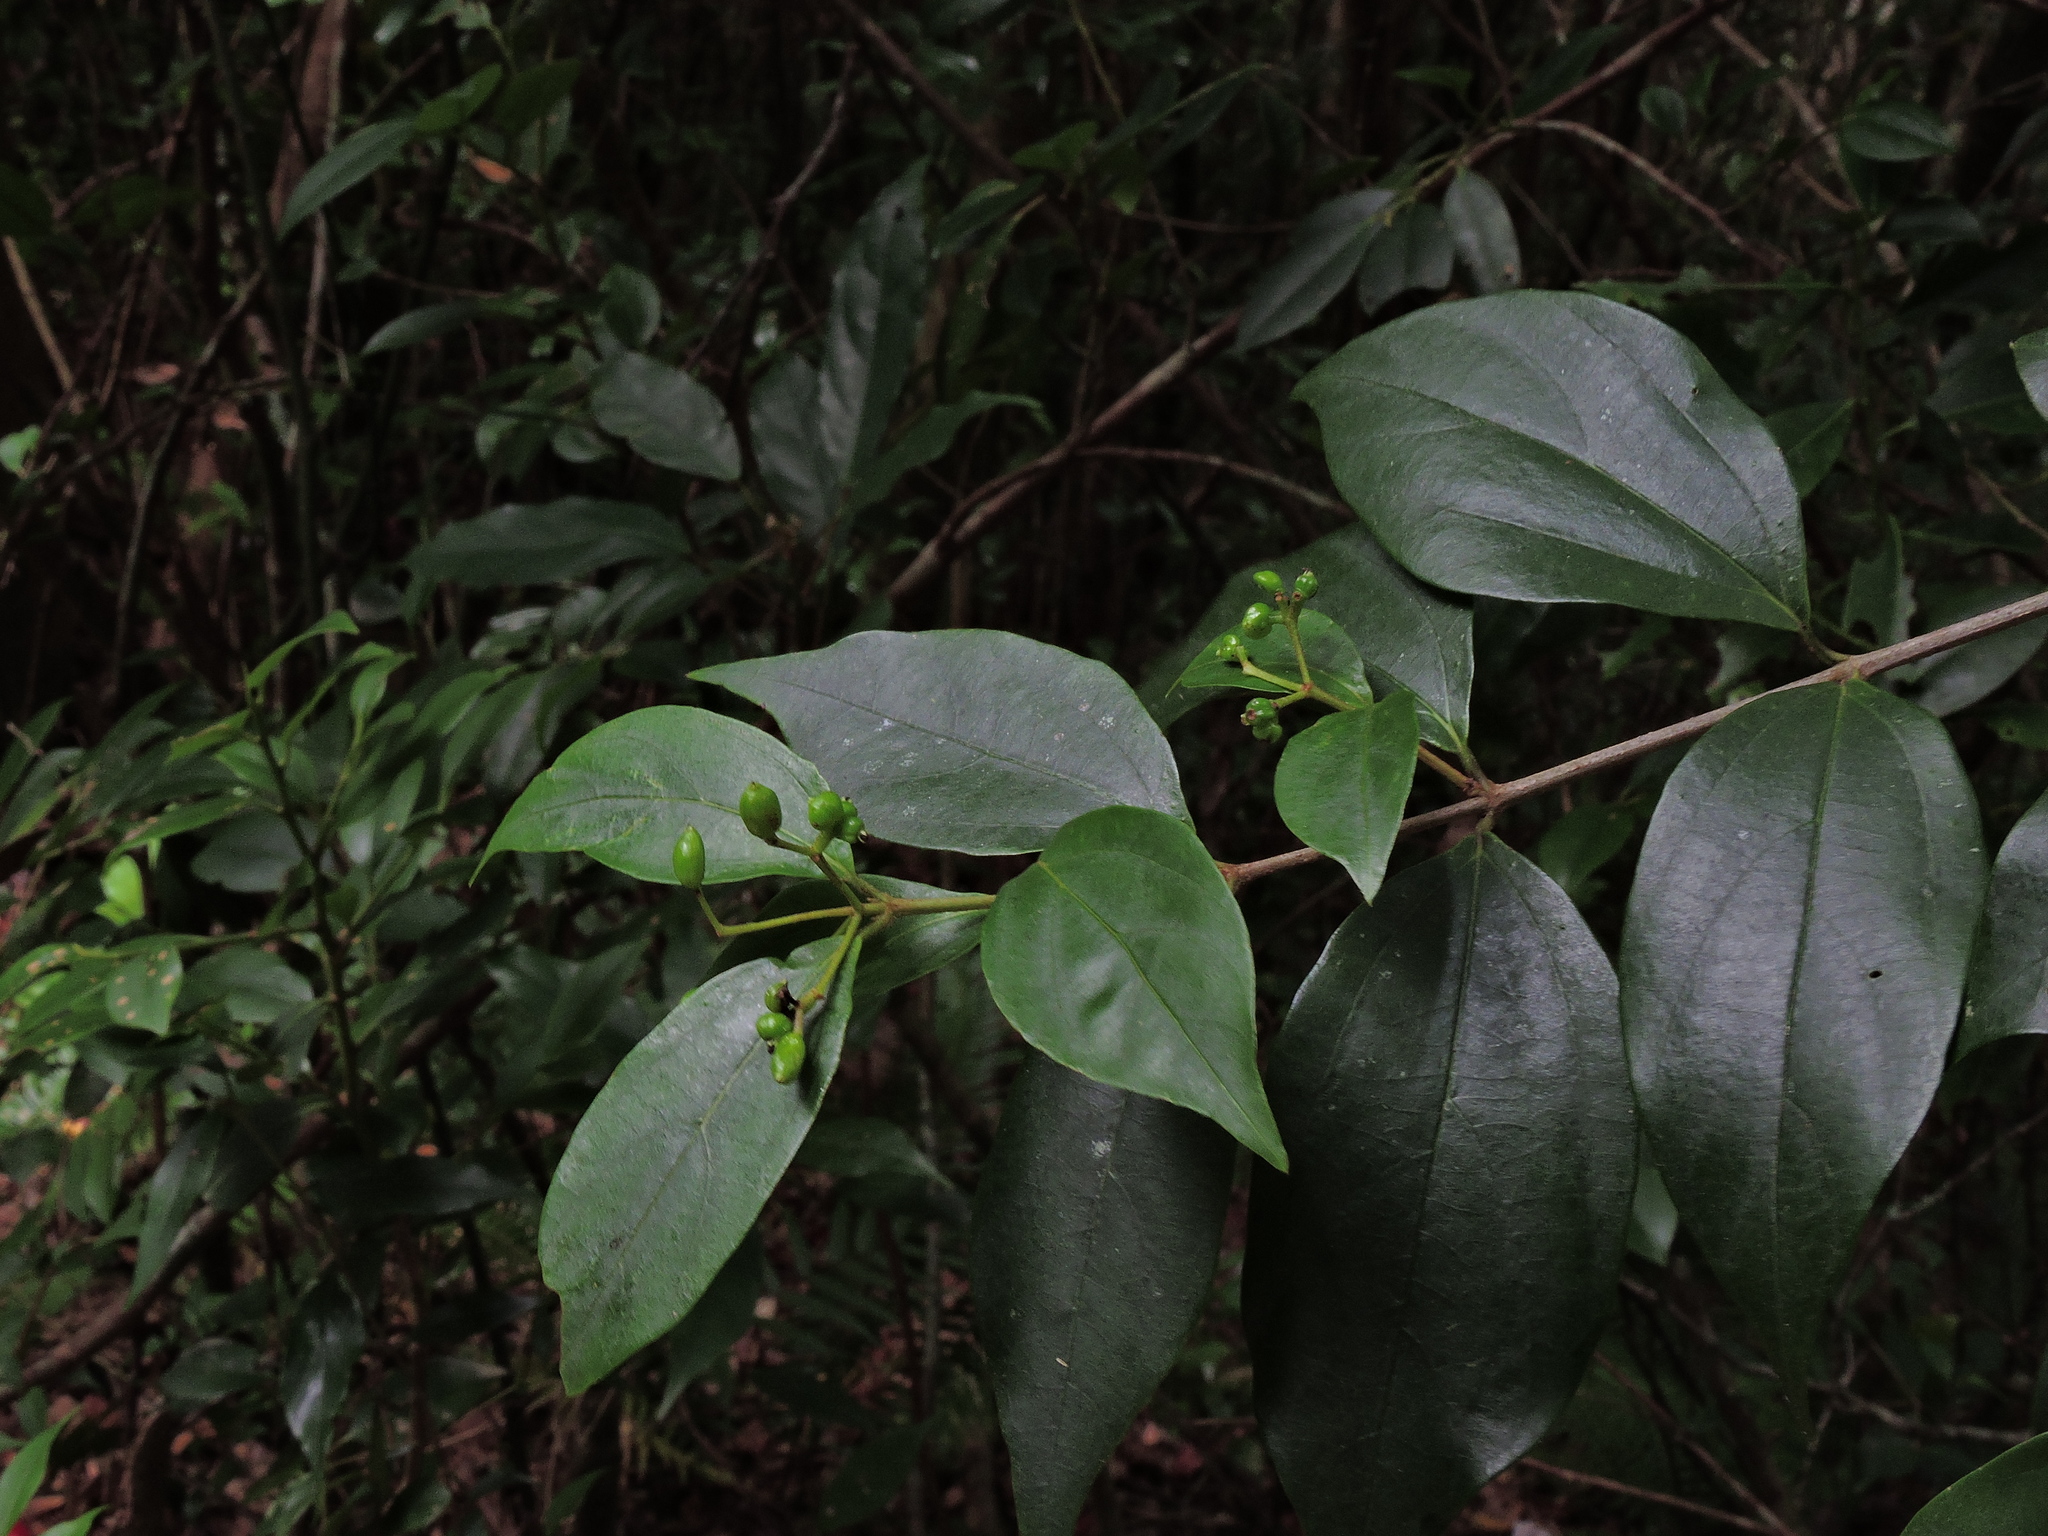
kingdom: Plantae
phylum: Tracheophyta
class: Magnoliopsida
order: Dipsacales
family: Viburnaceae
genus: Viburnum
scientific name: Viburnum integrifolium
